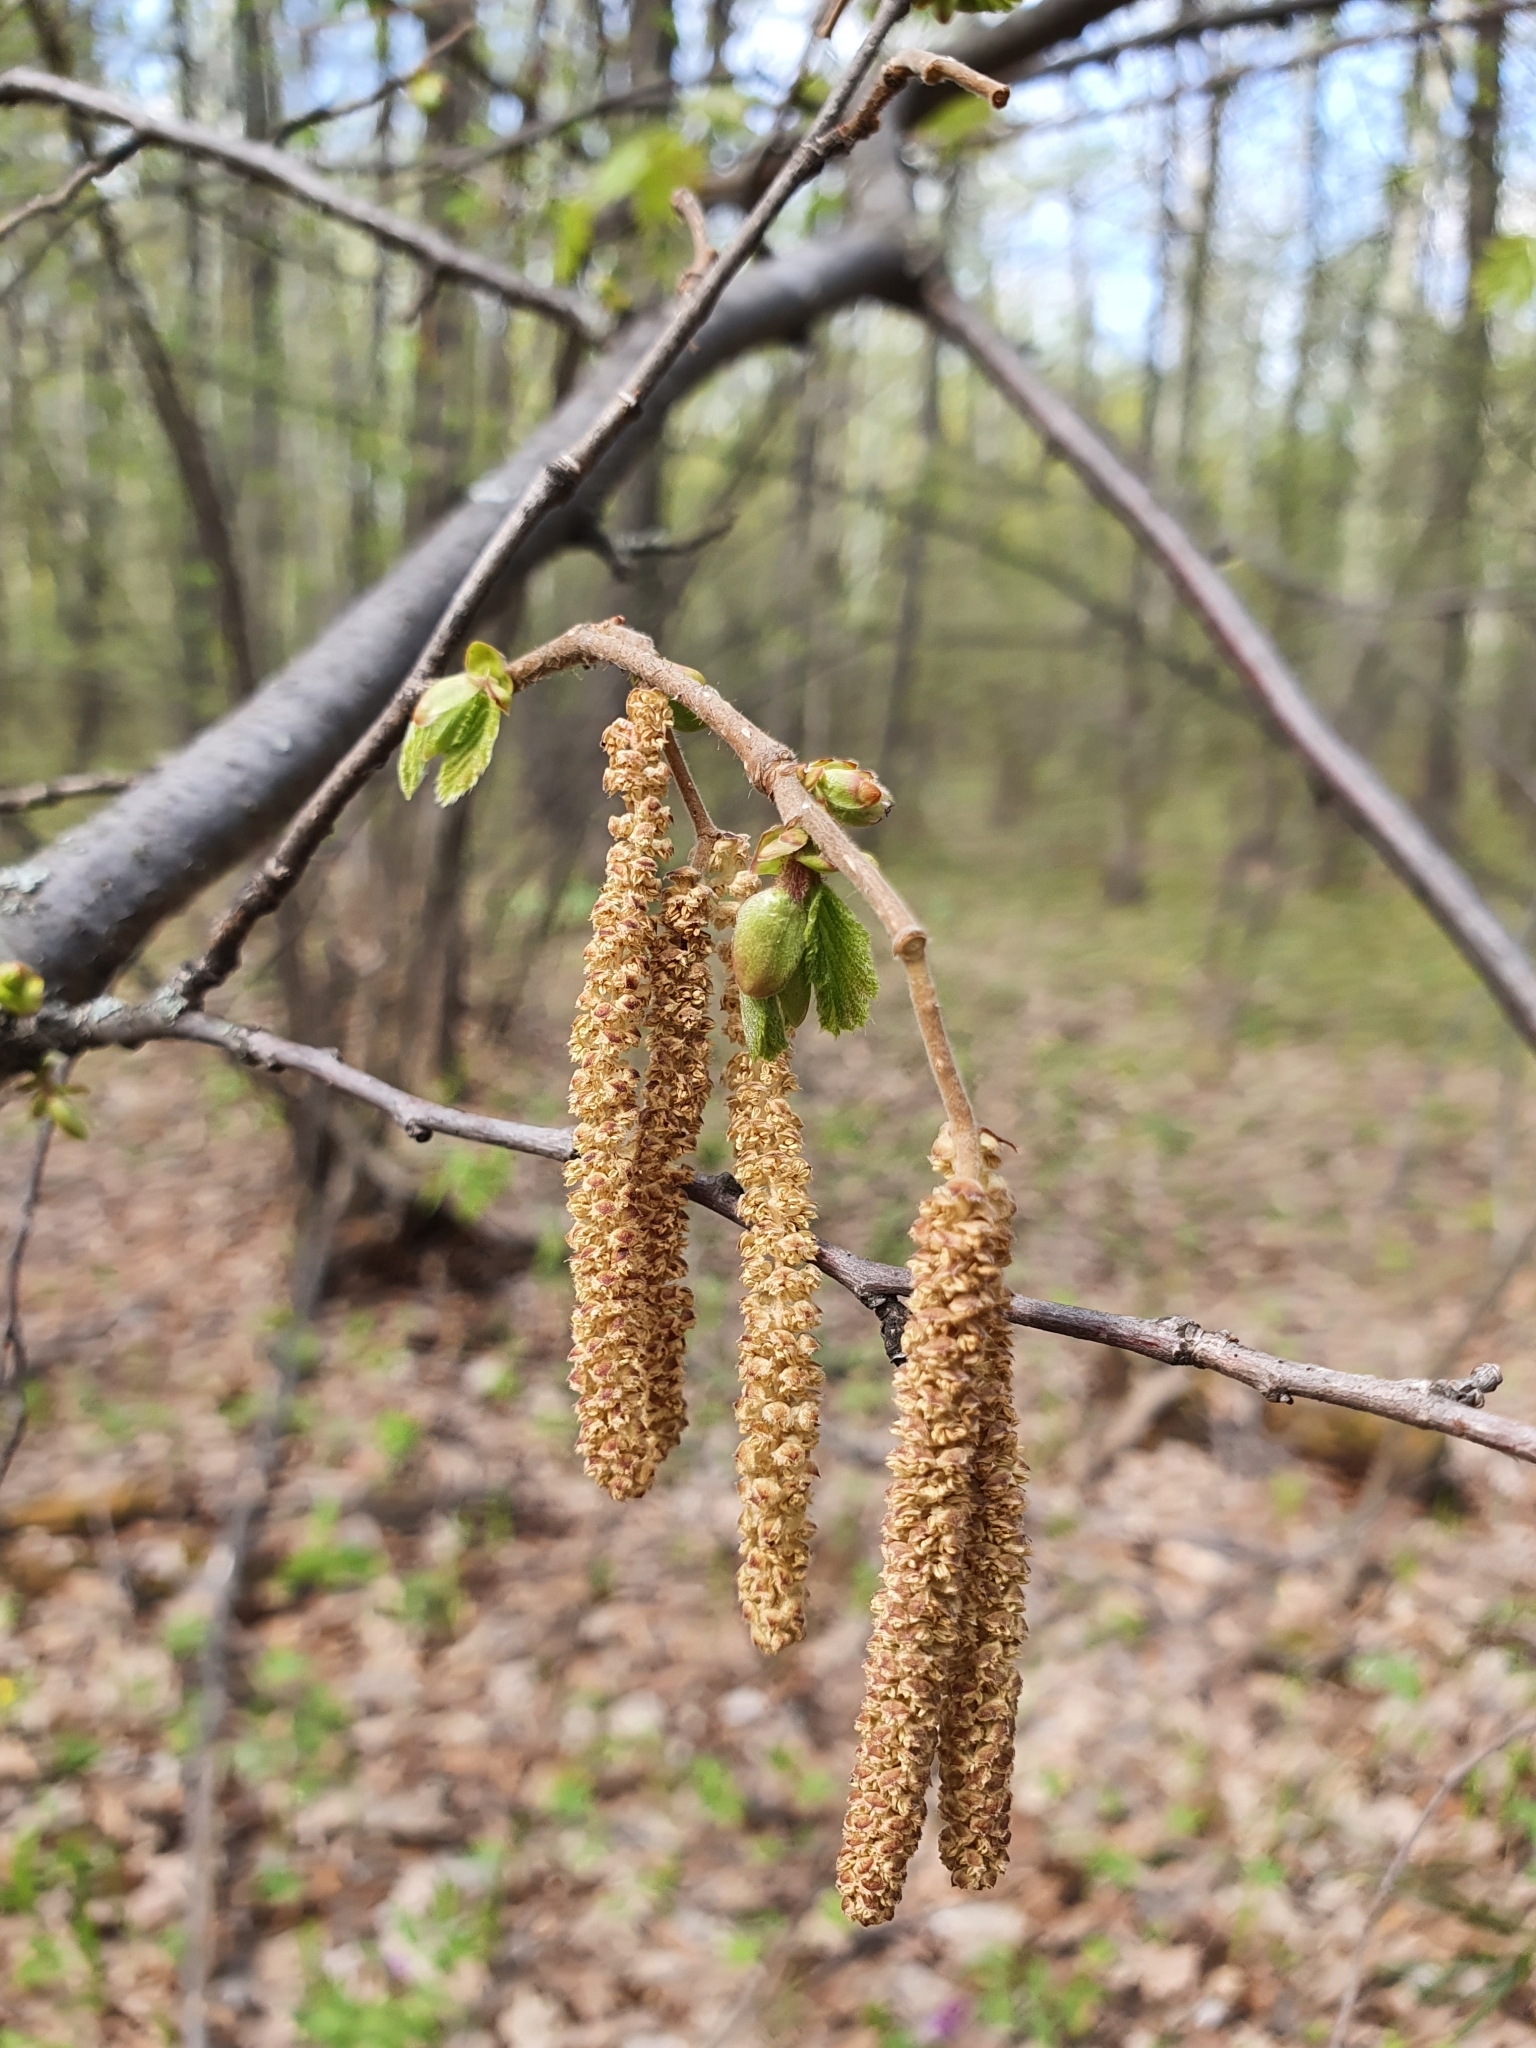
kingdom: Plantae
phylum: Tracheophyta
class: Magnoliopsida
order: Fagales
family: Betulaceae
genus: Corylus
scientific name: Corylus avellana
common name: European hazel
